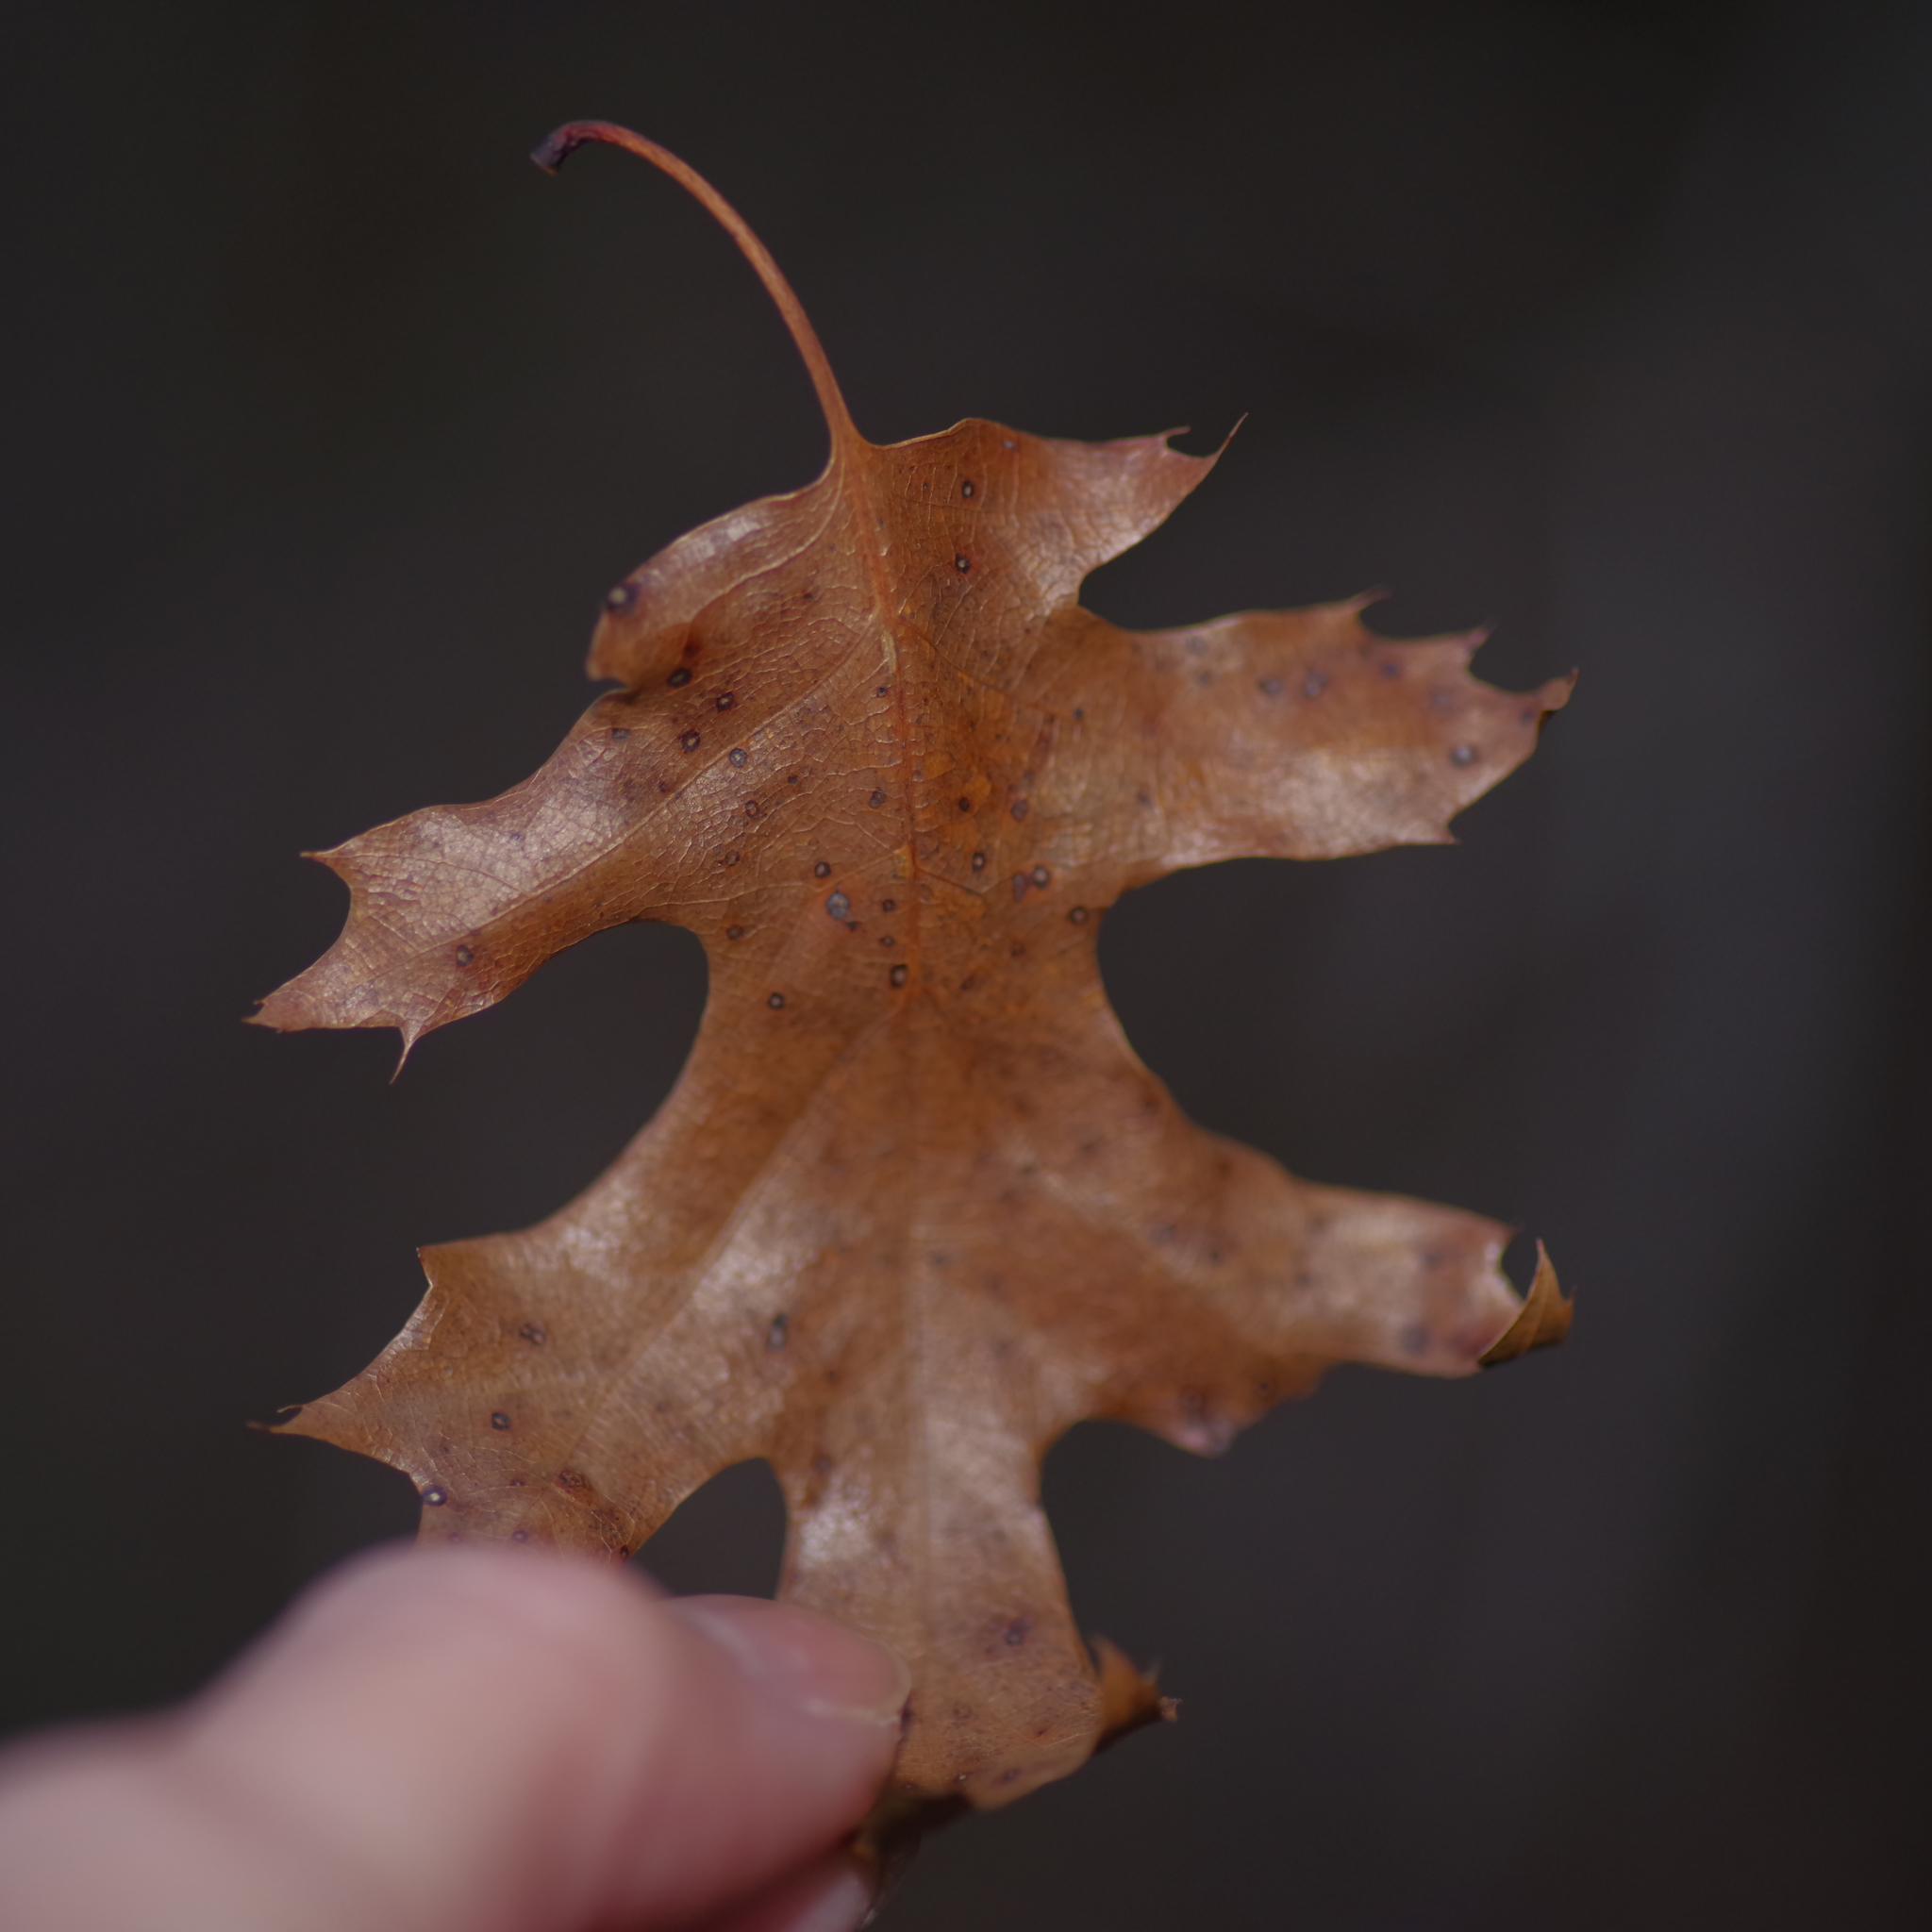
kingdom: Plantae
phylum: Tracheophyta
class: Magnoliopsida
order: Fagales
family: Fagaceae
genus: Quercus
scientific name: Quercus buckleyi
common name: Buckley oak
